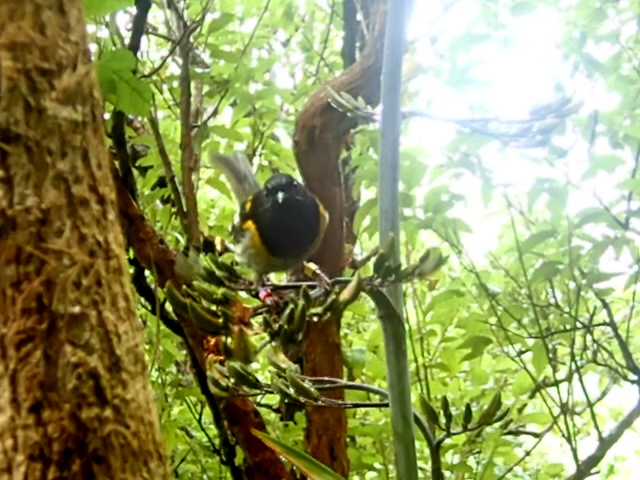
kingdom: Animalia
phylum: Chordata
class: Aves
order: Passeriformes
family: Notiomystidae
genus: Notiomystis
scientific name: Notiomystis cincta
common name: Stitchbird
